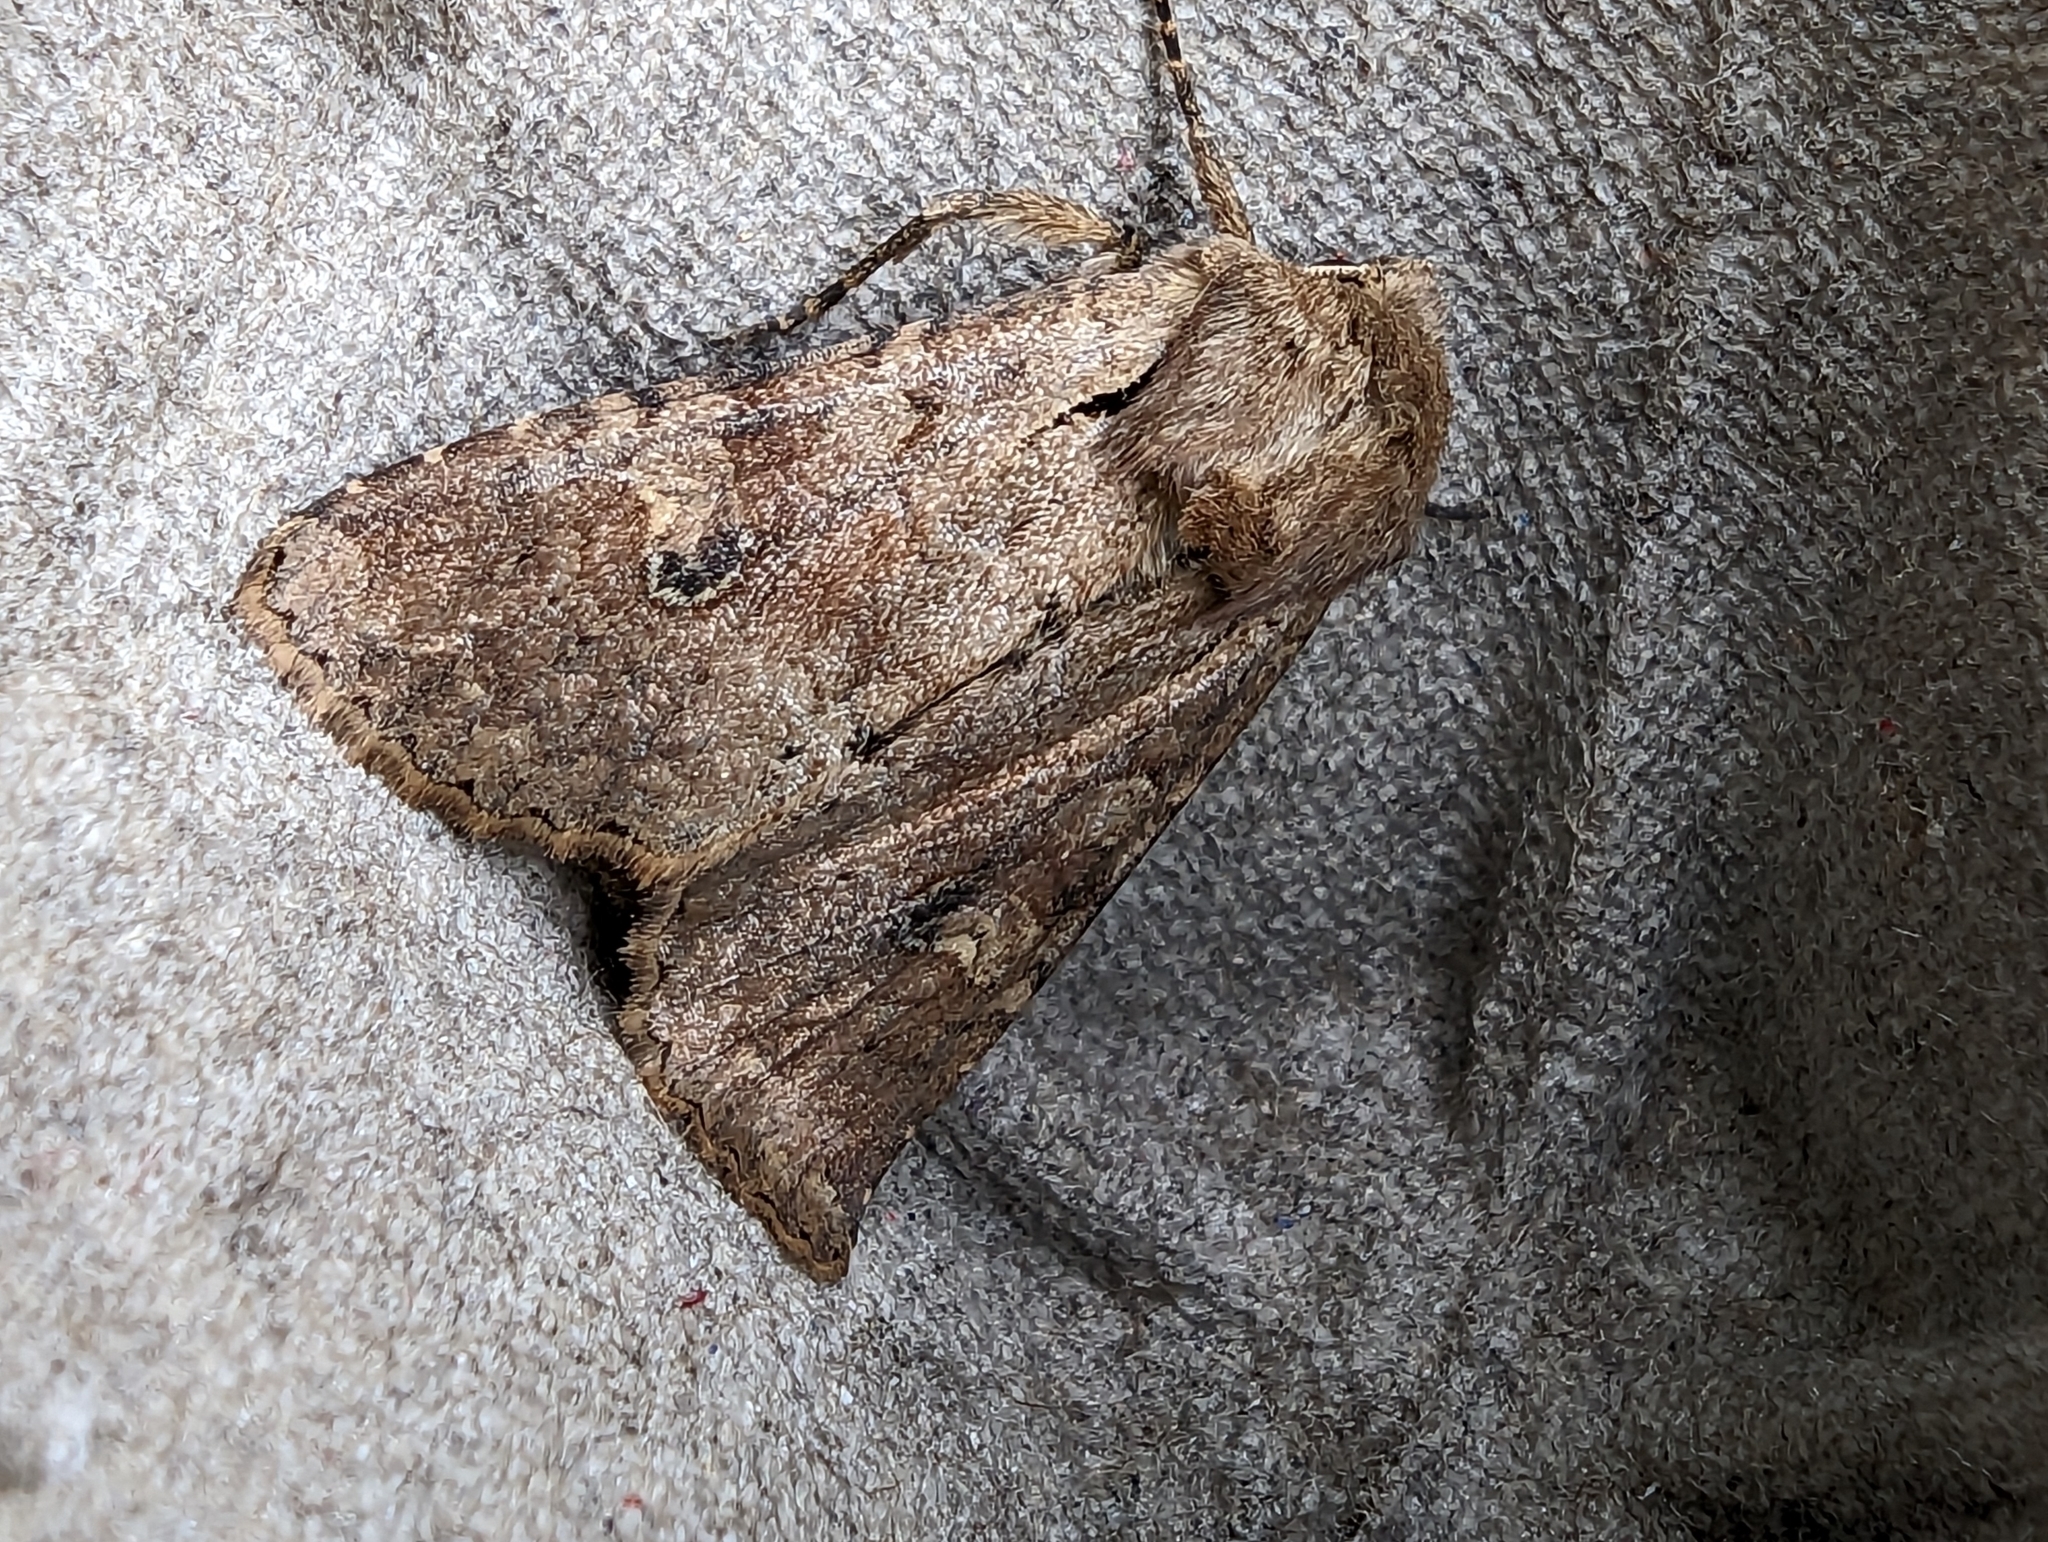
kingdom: Animalia
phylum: Arthropoda
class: Insecta
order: Lepidoptera
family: Noctuidae
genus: Apamea
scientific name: Apamea sordens
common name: Rustic shoulder-knot
